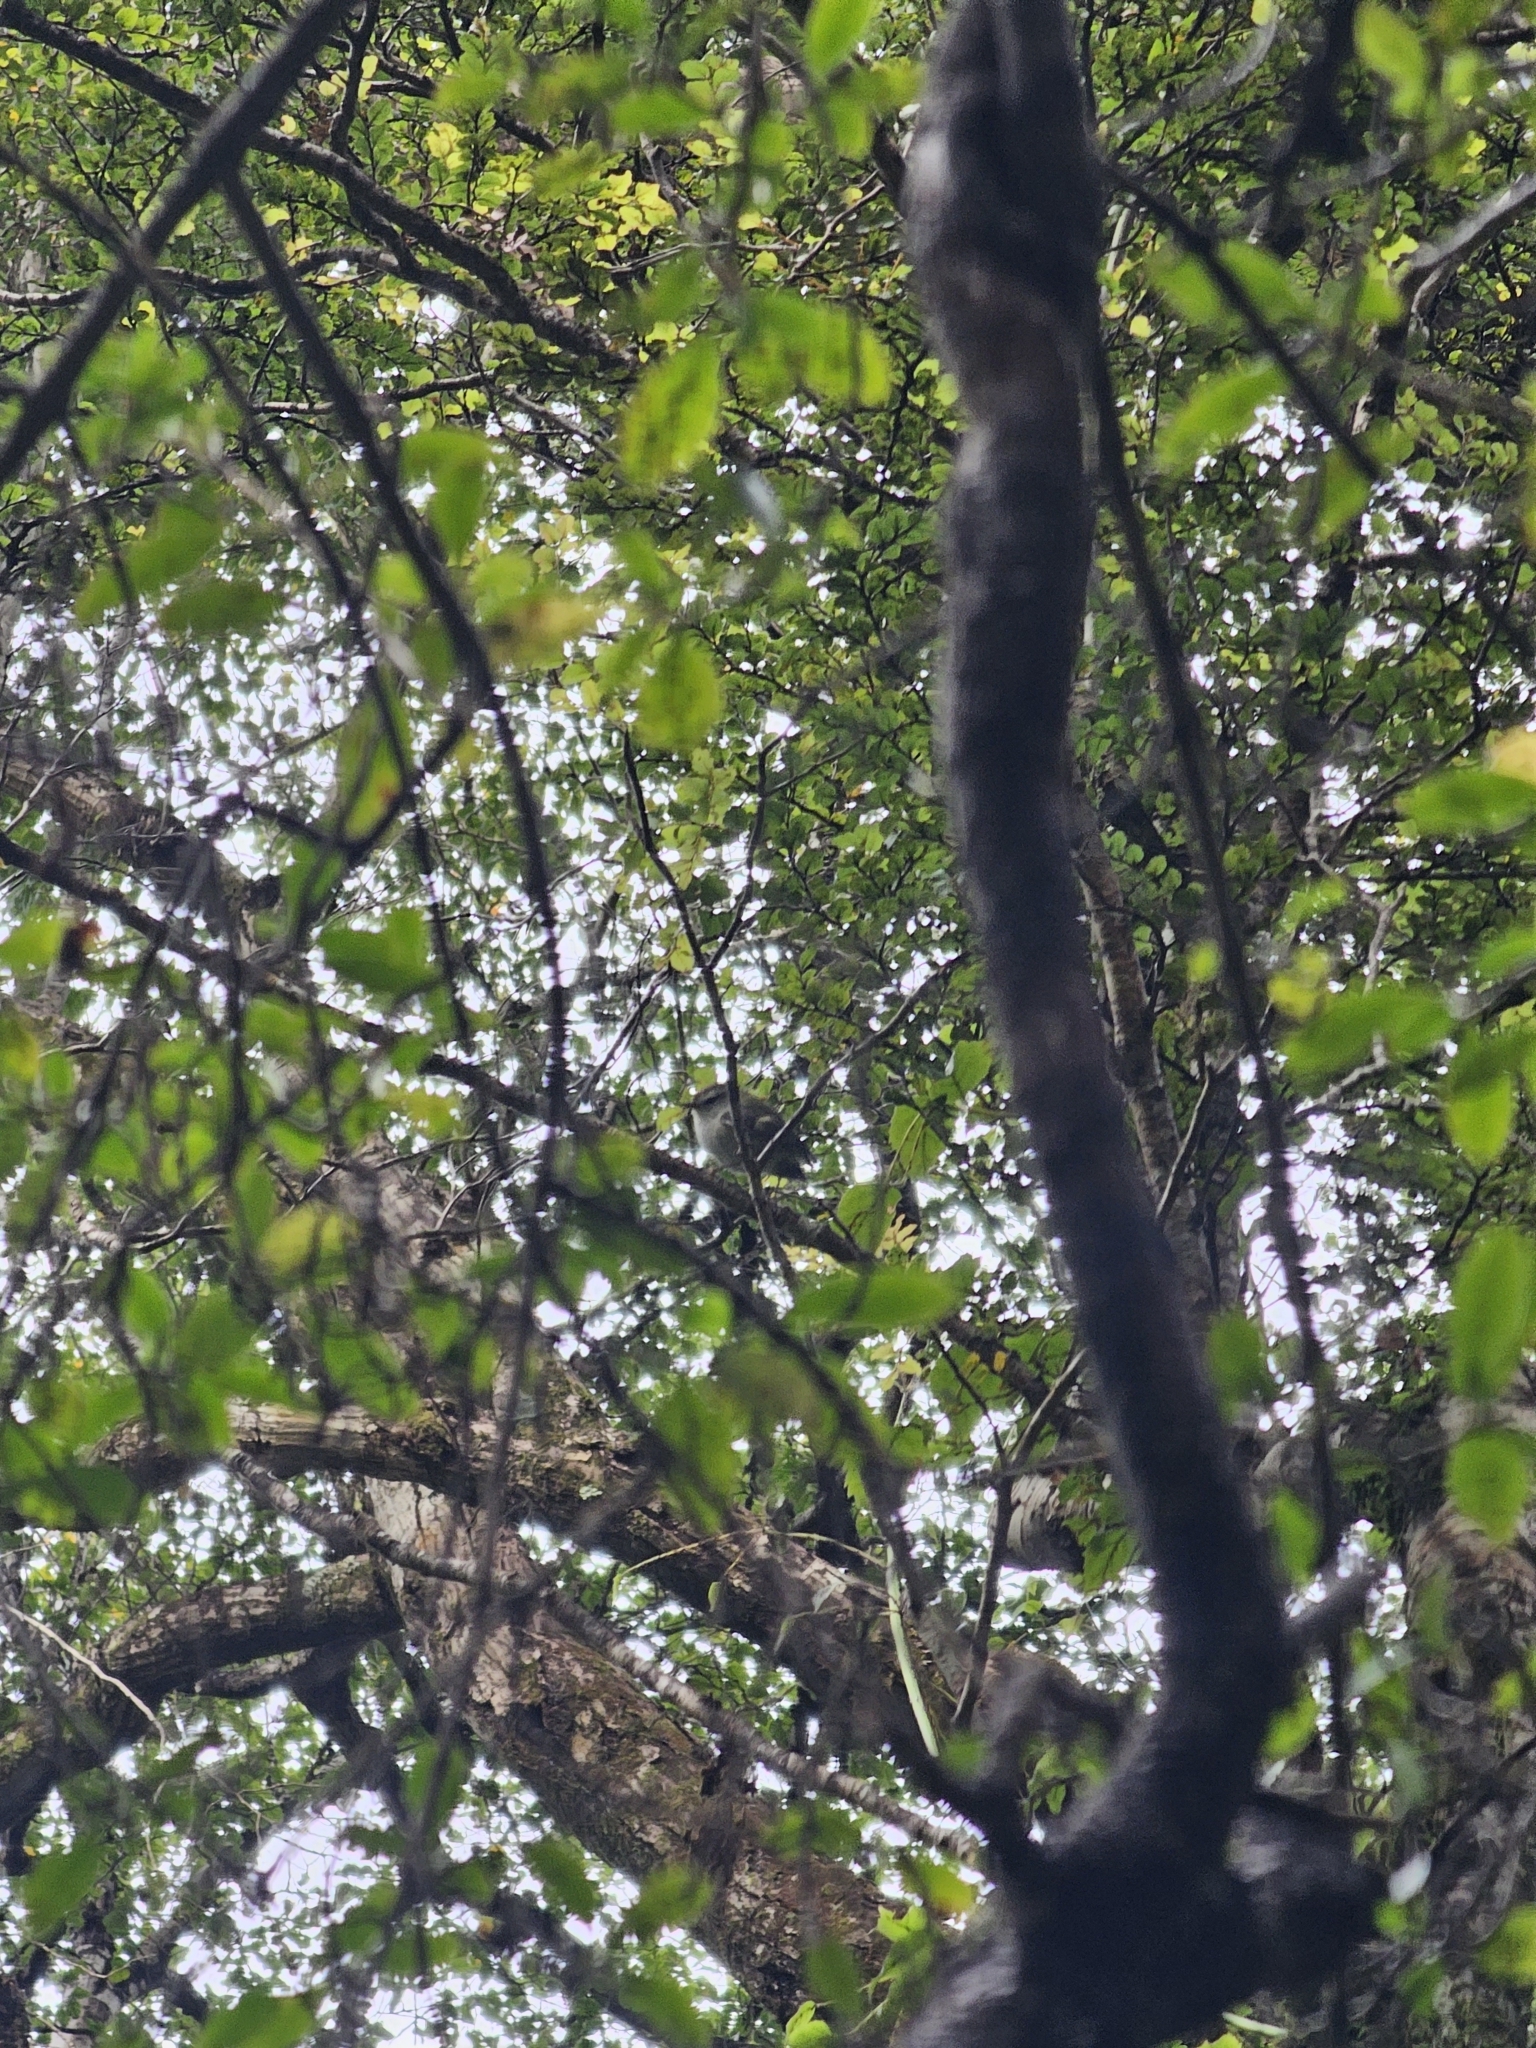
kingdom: Animalia
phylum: Chordata
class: Aves
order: Passeriformes
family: Acanthisittidae
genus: Acanthisitta
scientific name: Acanthisitta chloris
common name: Rifleman
